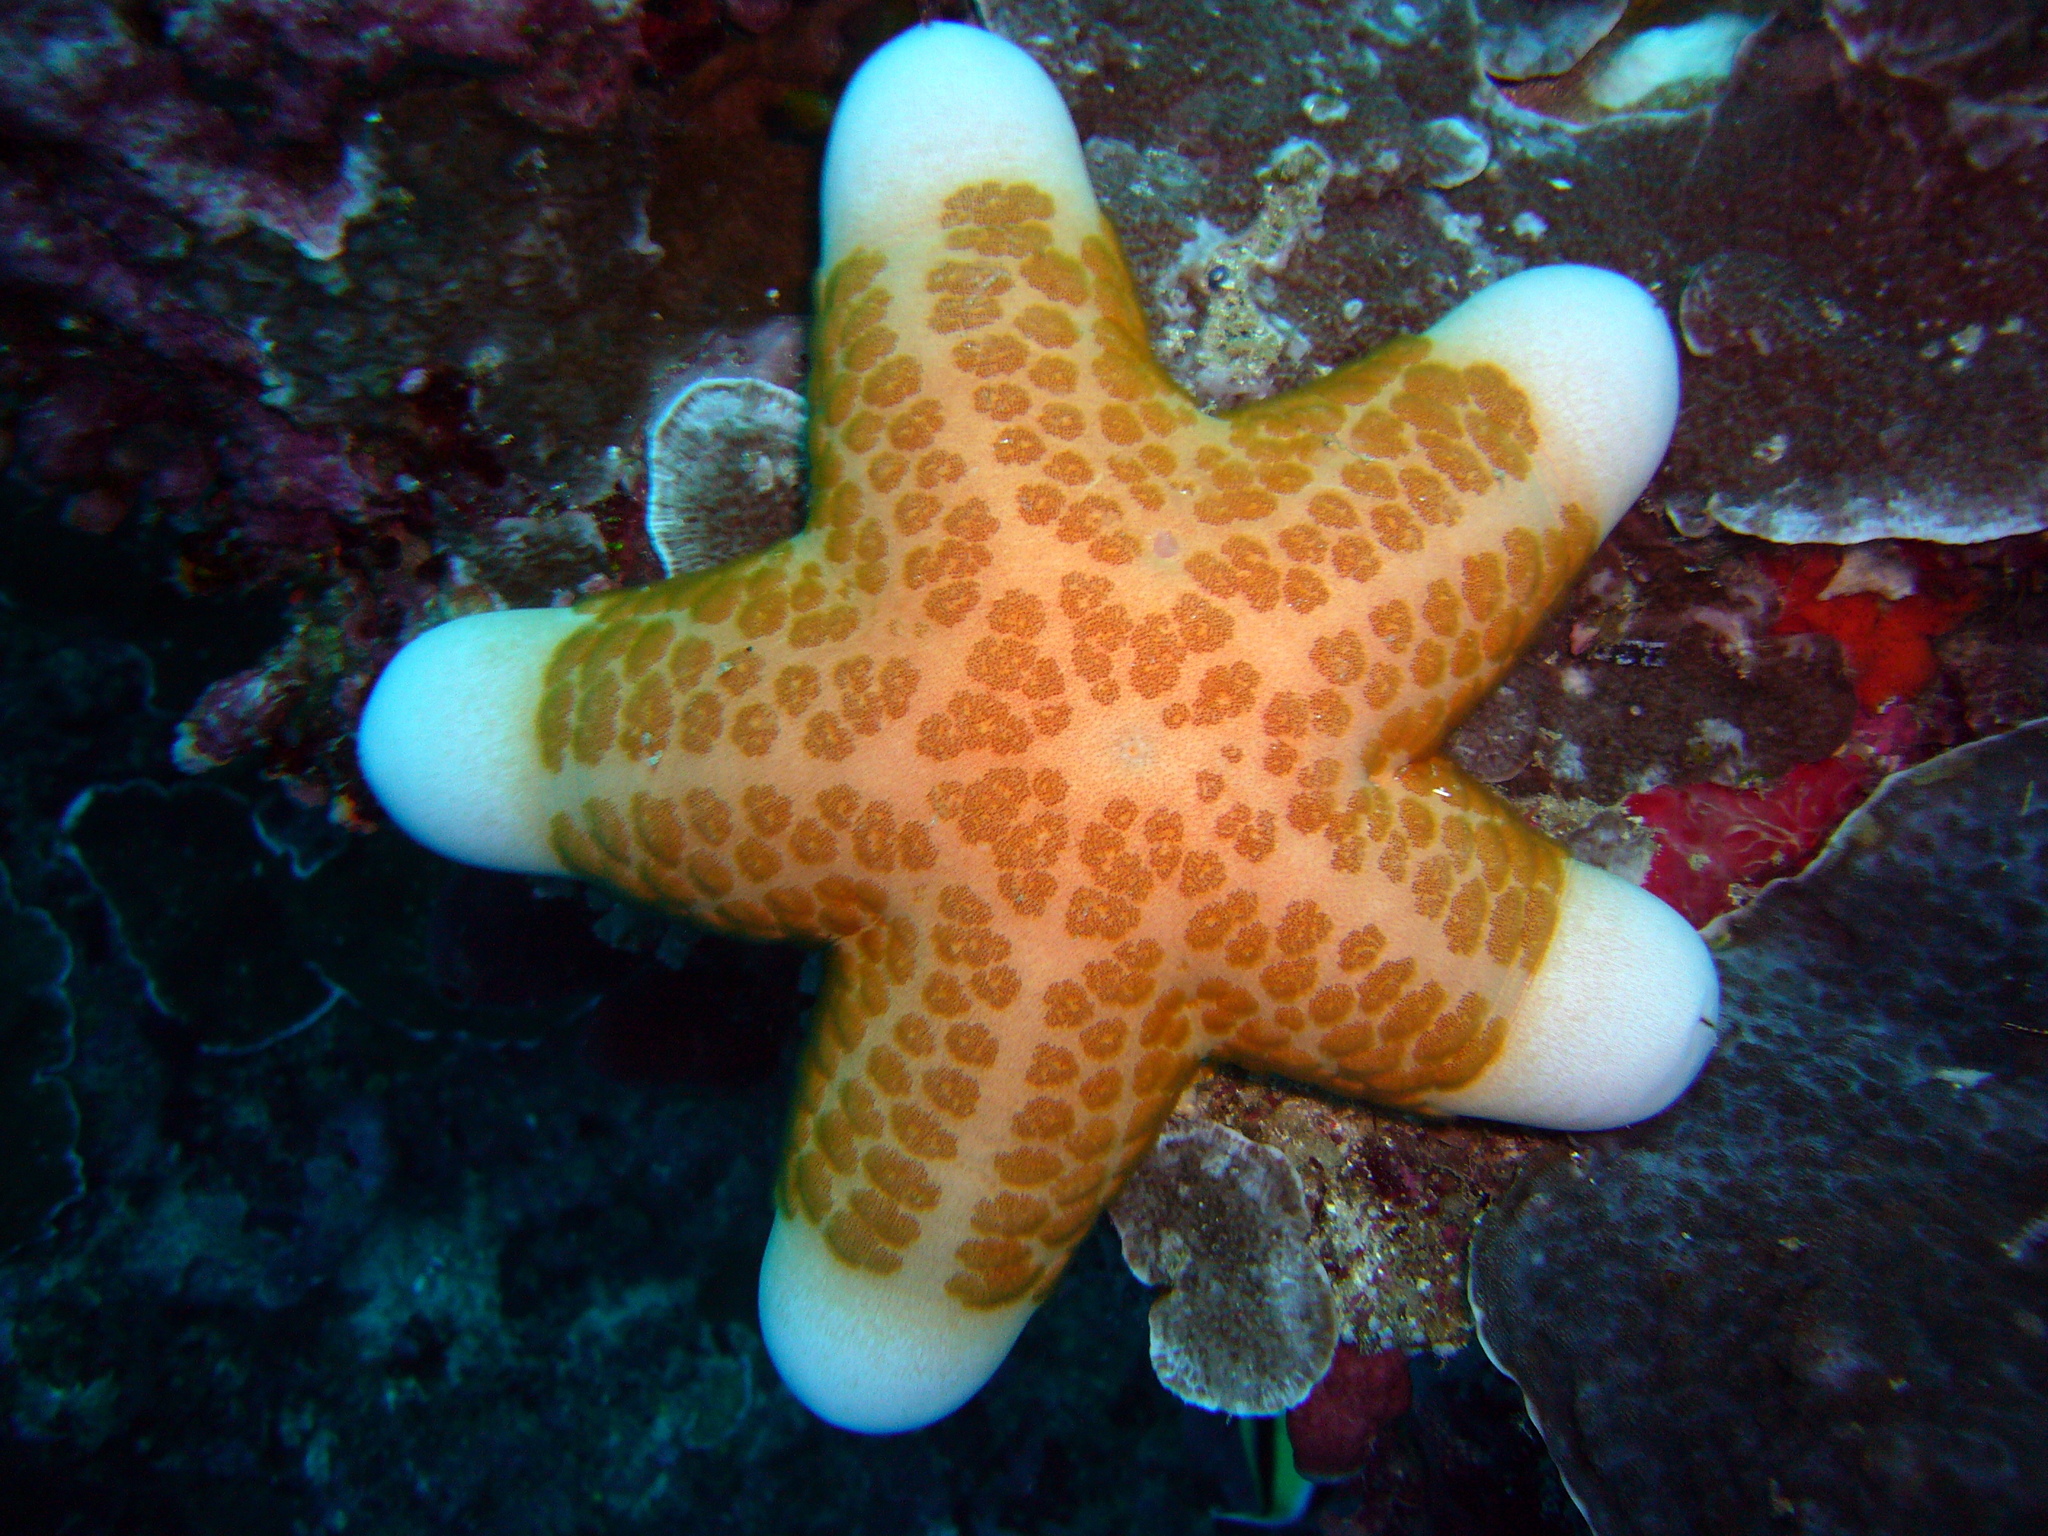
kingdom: Animalia
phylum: Echinodermata
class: Asteroidea
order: Valvatida
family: Oreasteridae
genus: Choriaster
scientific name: Choriaster granulatus
